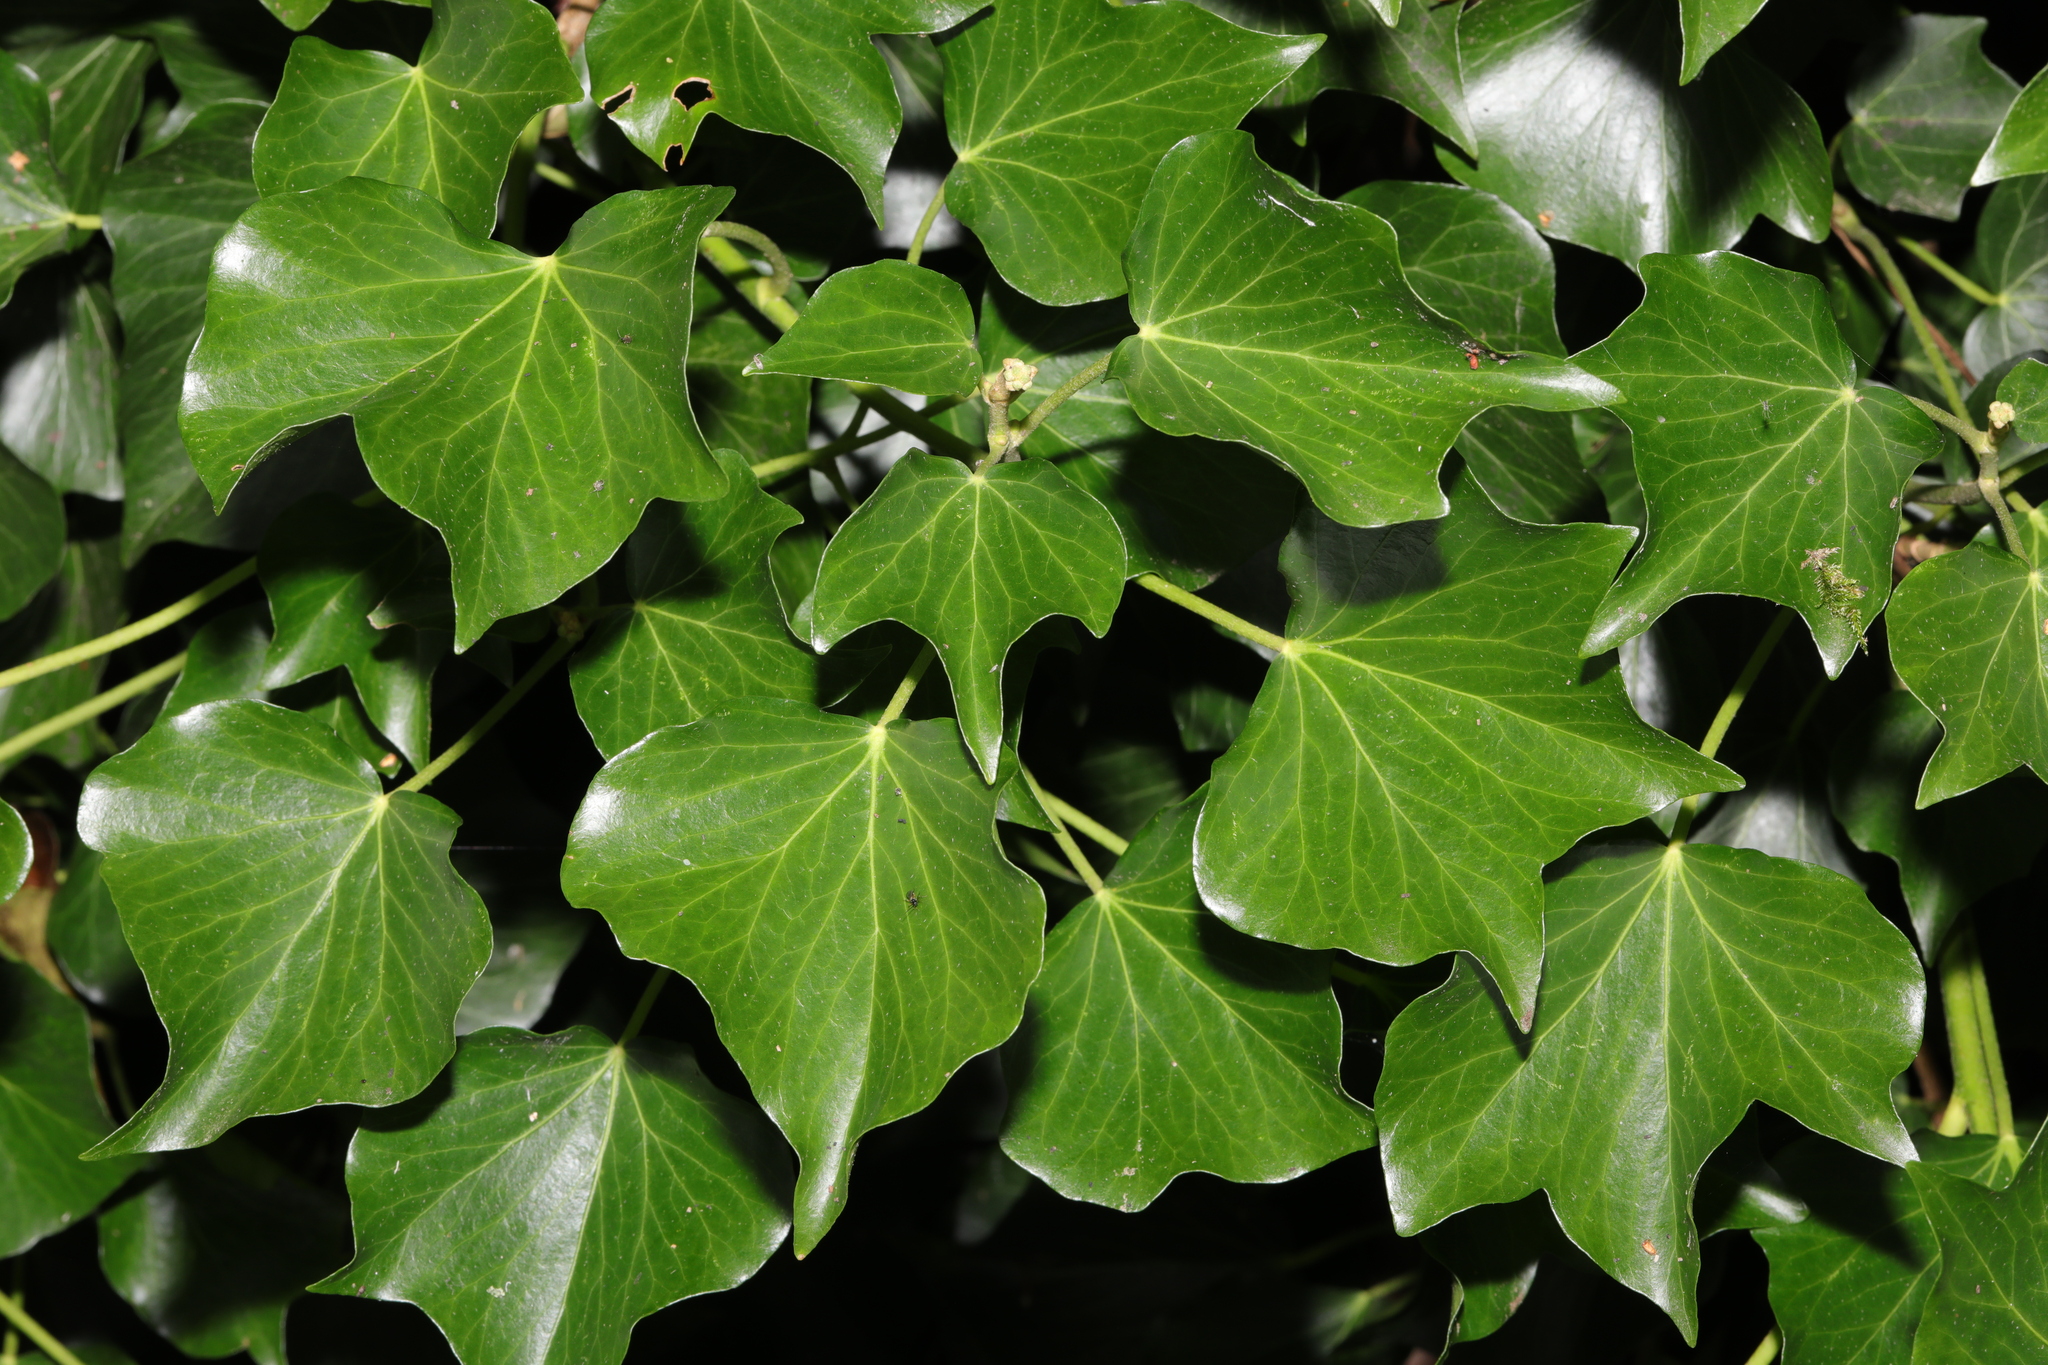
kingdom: Plantae
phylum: Tracheophyta
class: Magnoliopsida
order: Apiales
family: Araliaceae
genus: Hedera
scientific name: Hedera helix
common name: Ivy
